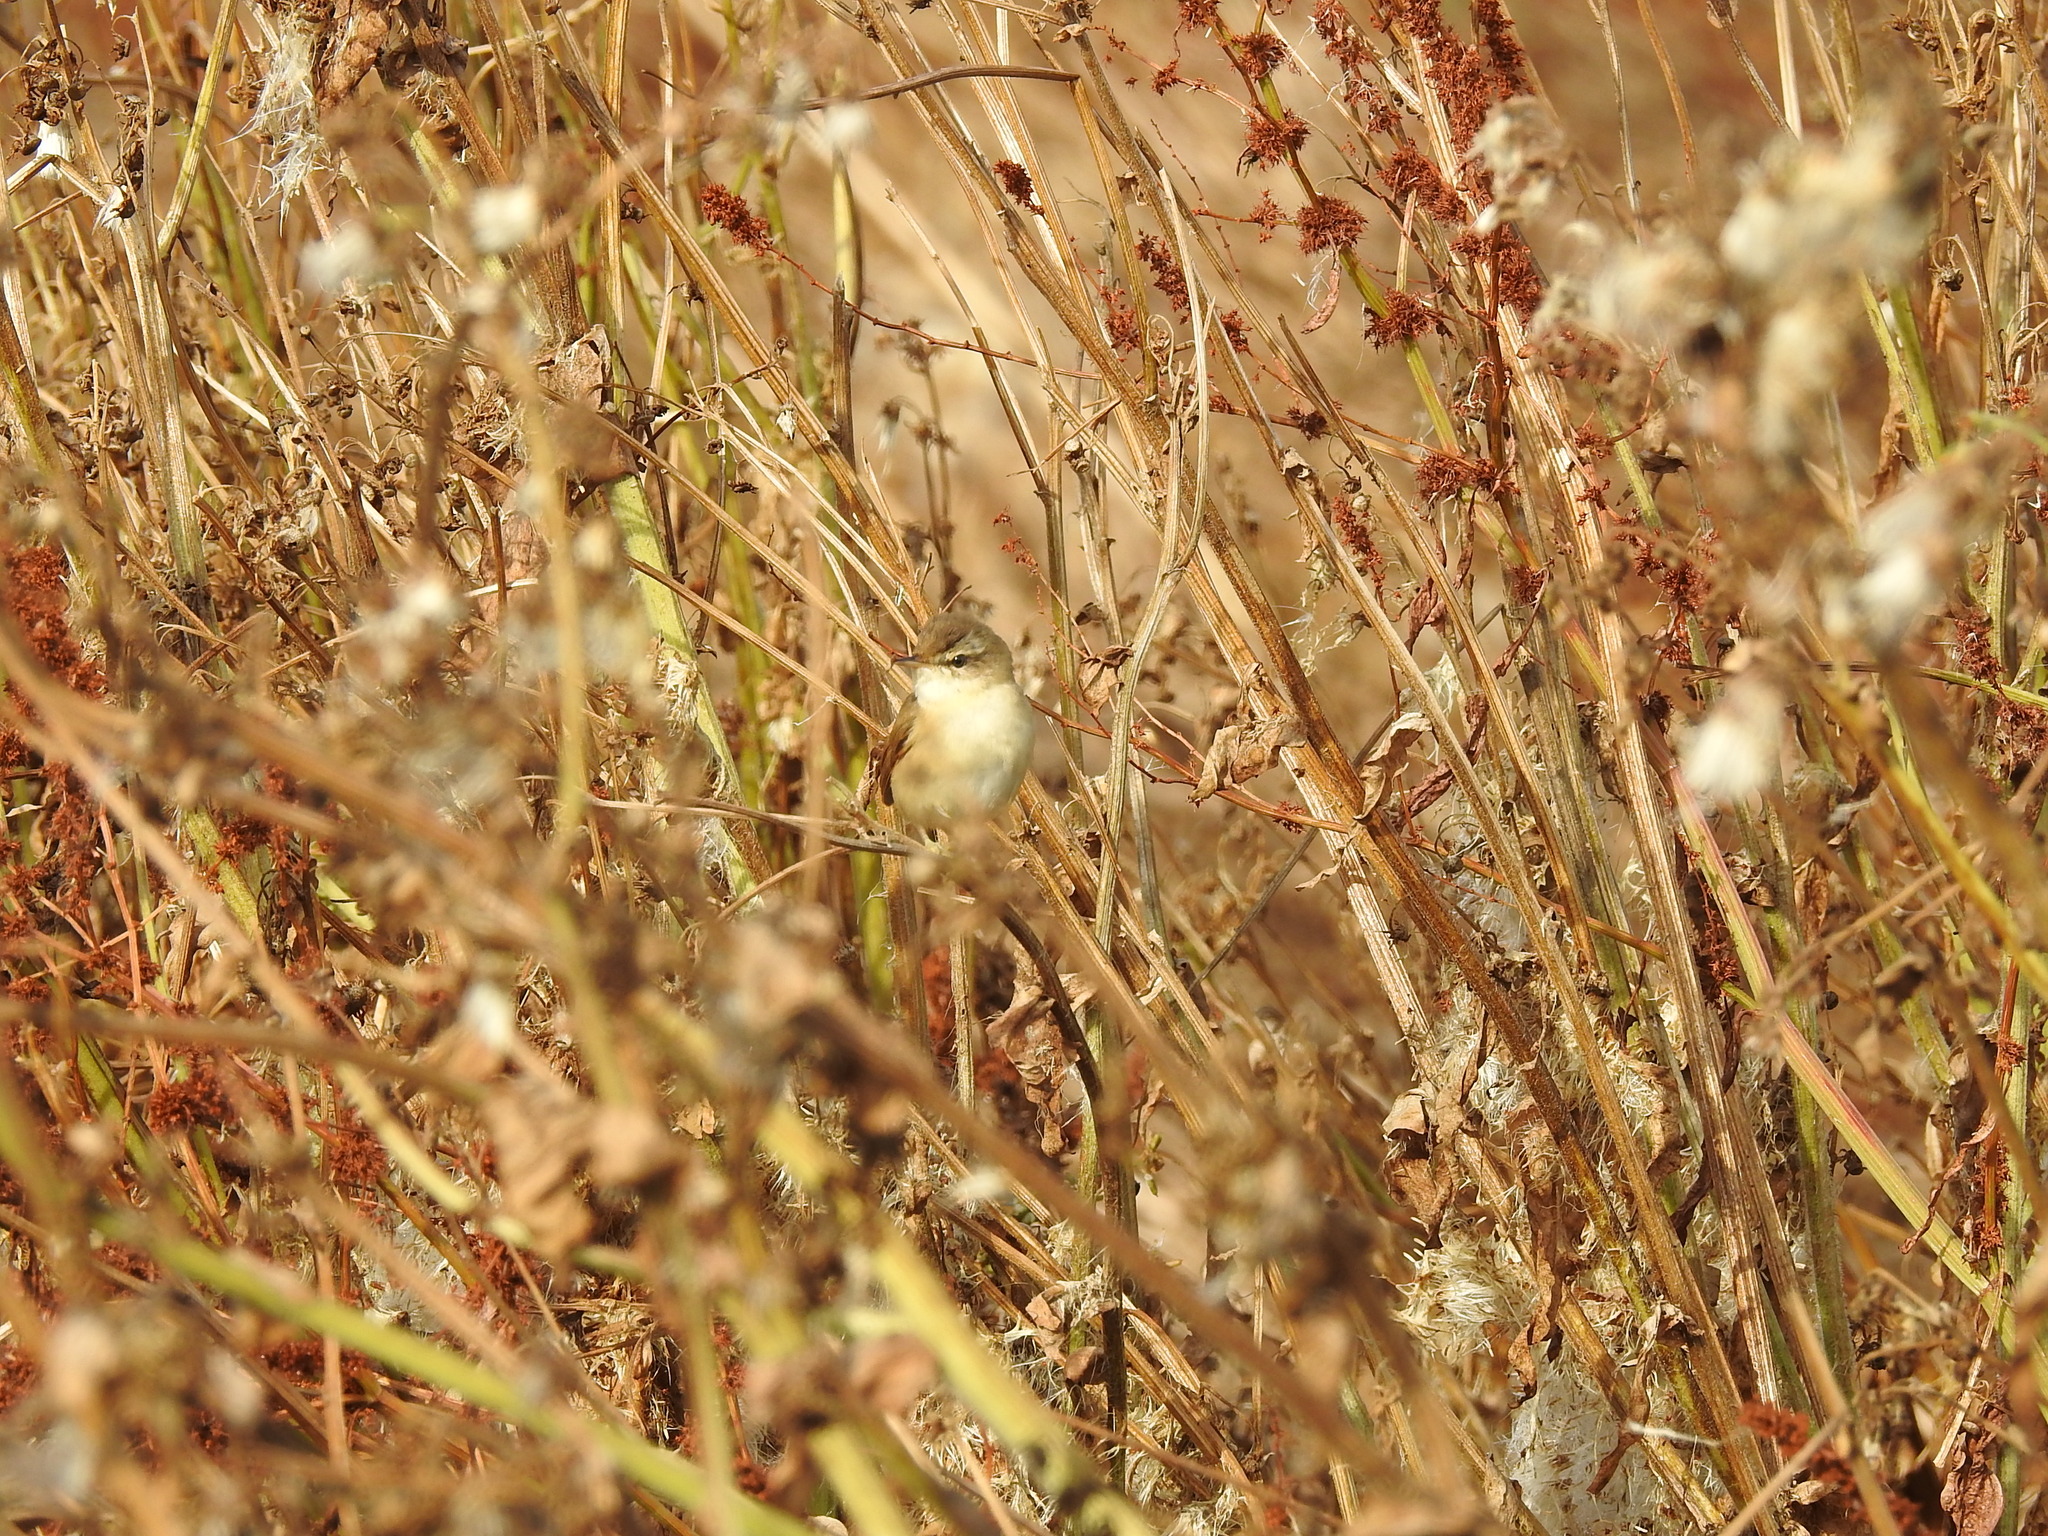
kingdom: Animalia
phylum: Chordata
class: Aves
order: Passeriformes
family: Acrocephalidae
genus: Acrocephalus
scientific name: Acrocephalus agricola
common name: Paddyfield warbler
